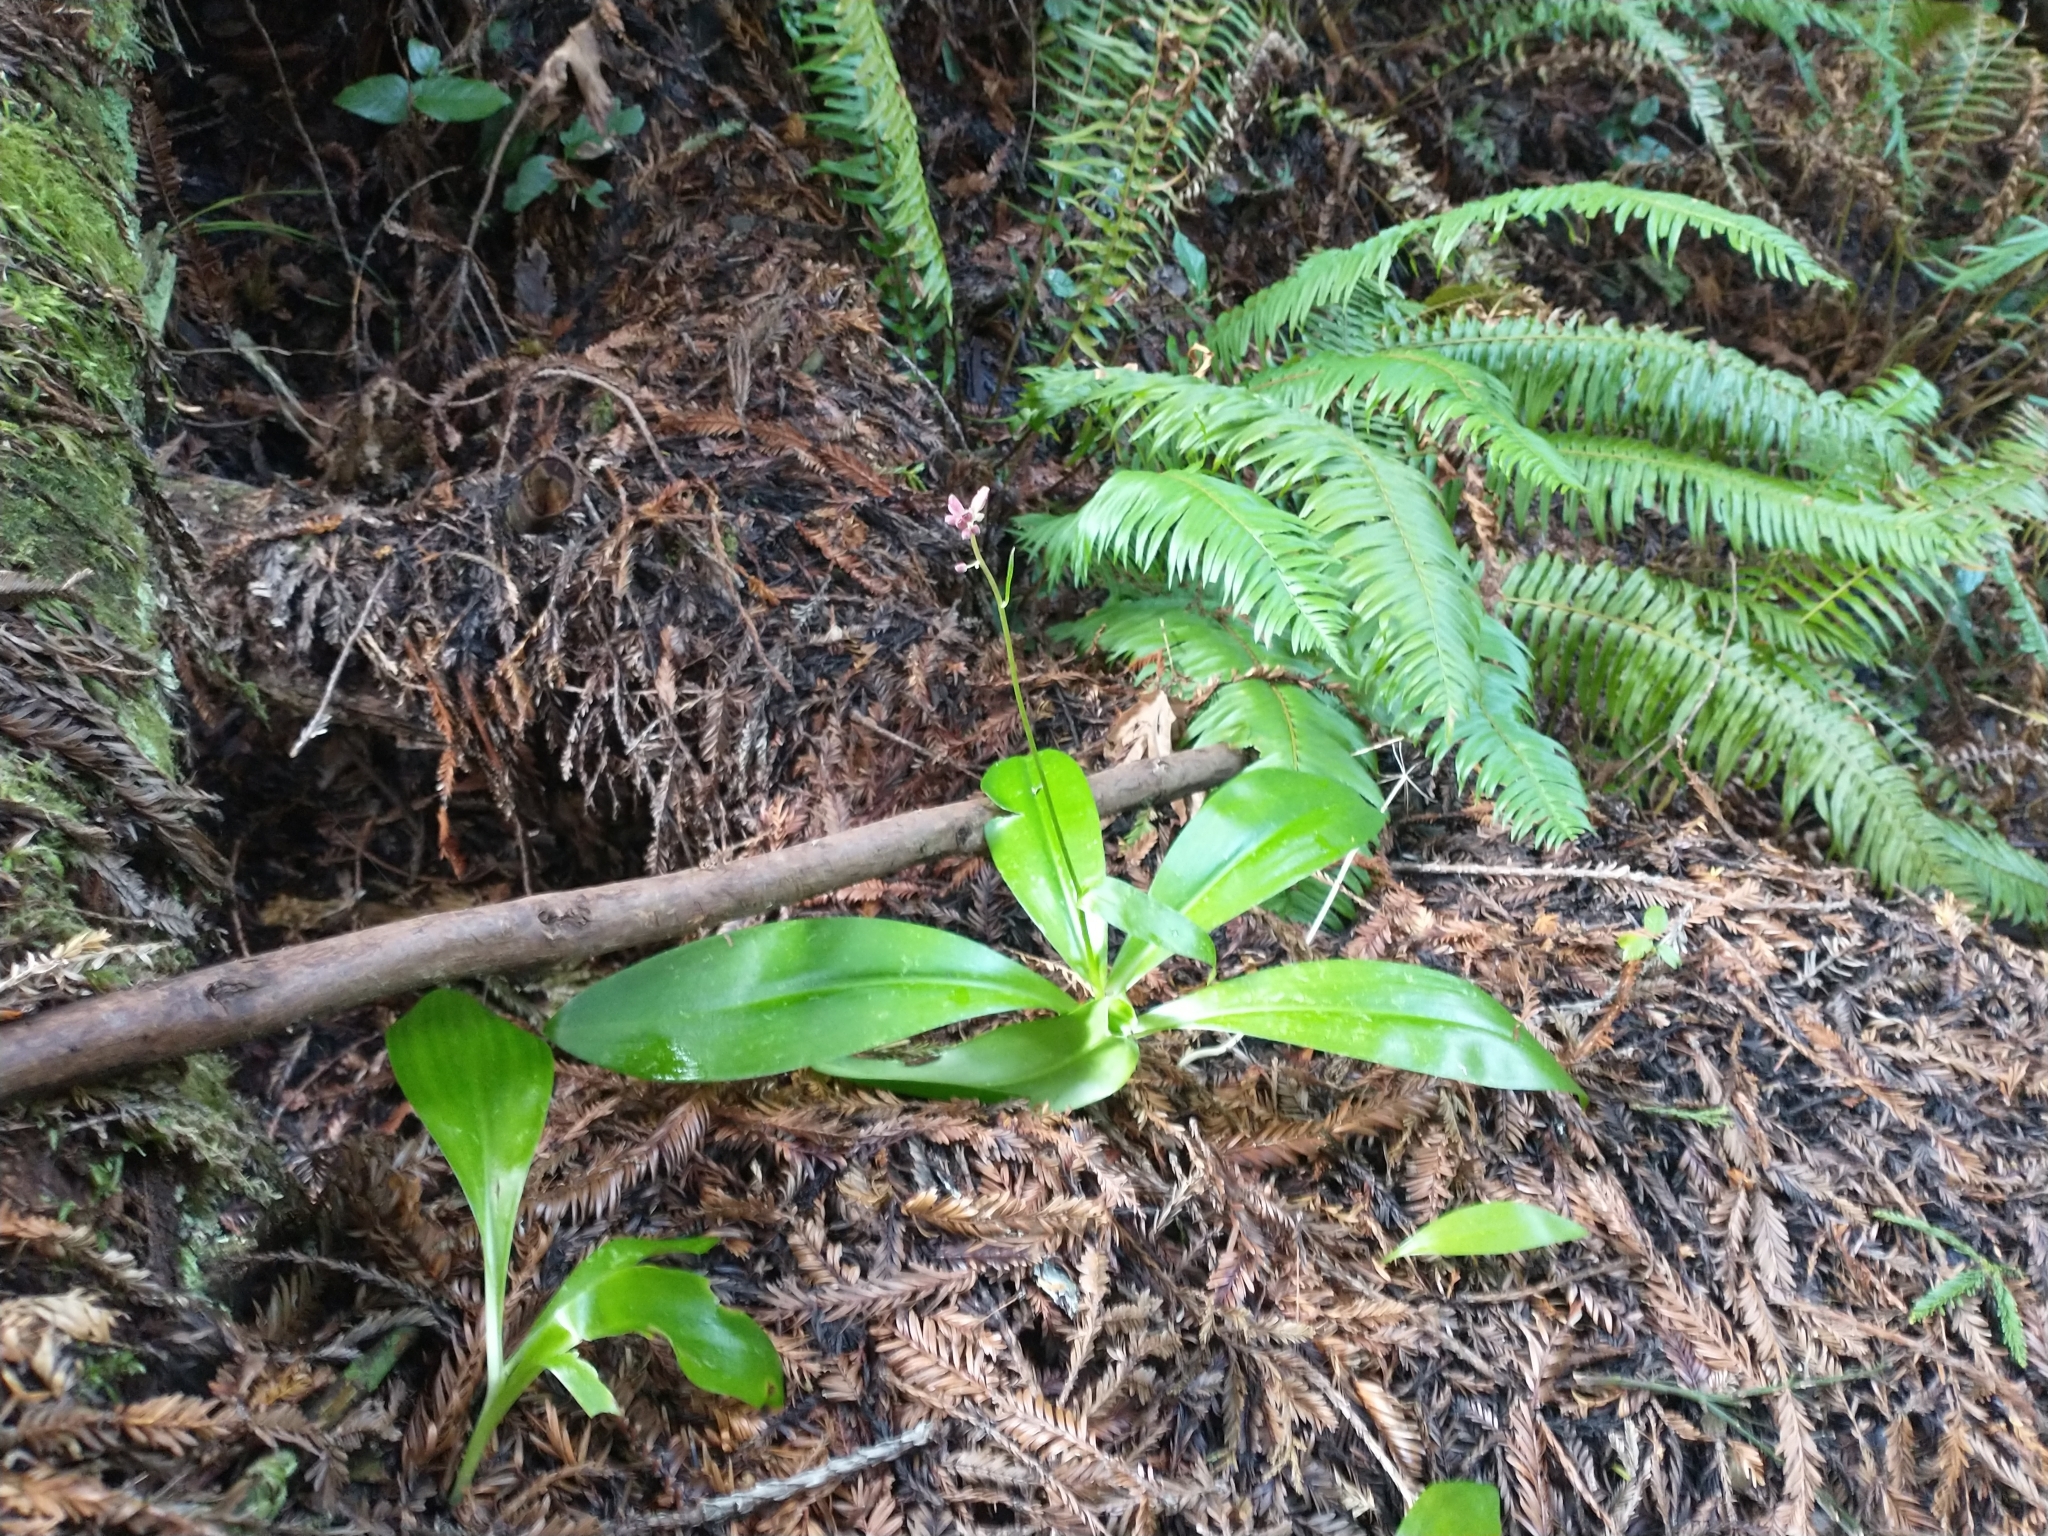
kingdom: Plantae
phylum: Tracheophyta
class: Liliopsida
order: Liliales
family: Liliaceae
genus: Clintonia
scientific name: Clintonia andrewsiana
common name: Red clintonia
